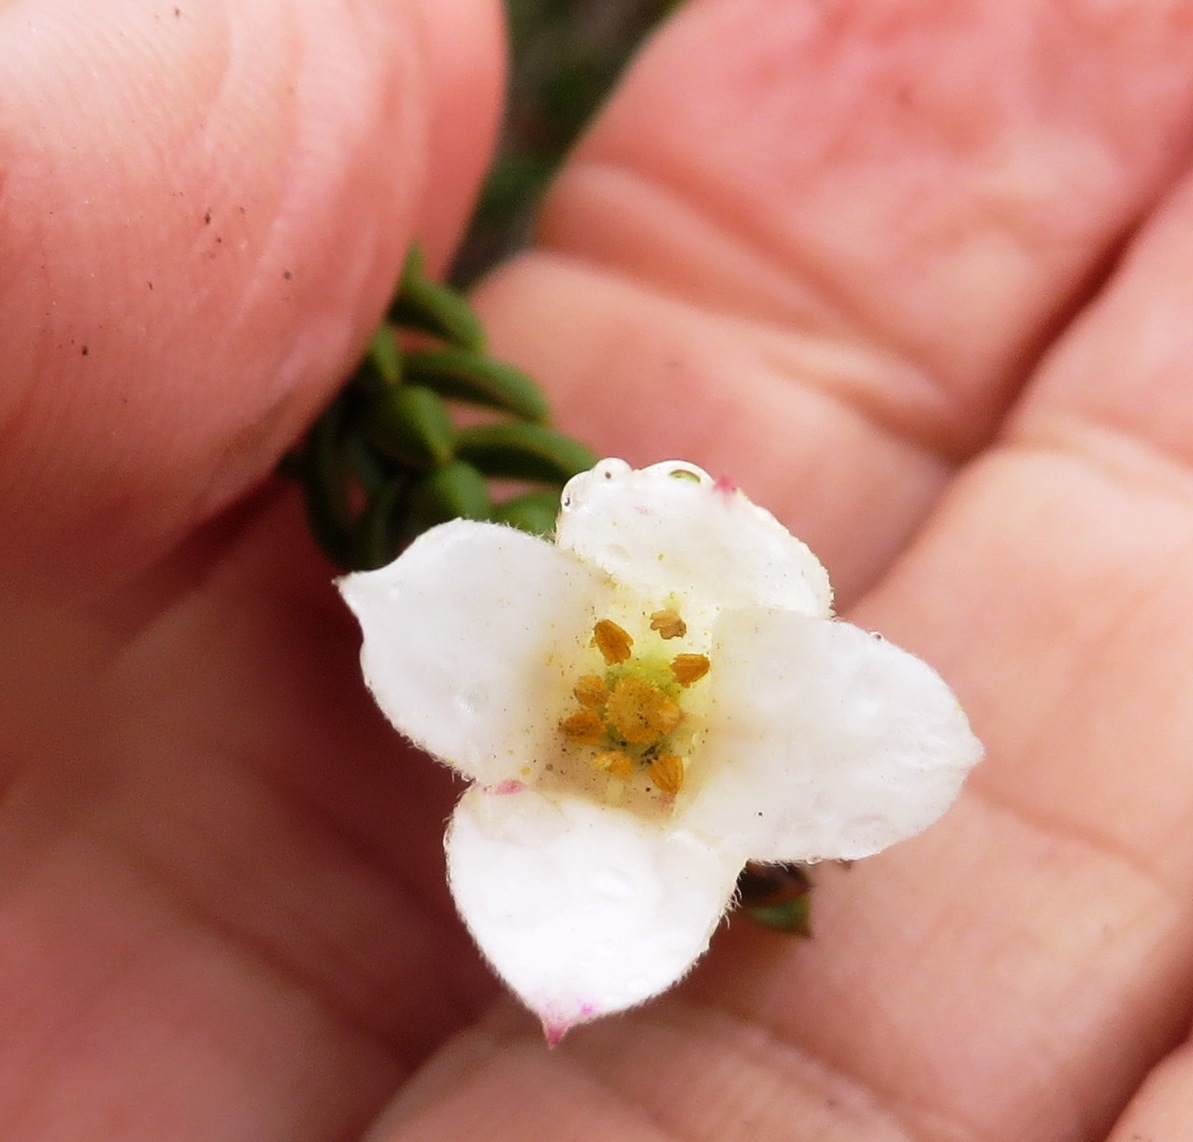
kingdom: Plantae
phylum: Tracheophyta
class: Magnoliopsida
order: Malvales
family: Thymelaeaceae
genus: Lachnaea
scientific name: Lachnaea grandiflora
